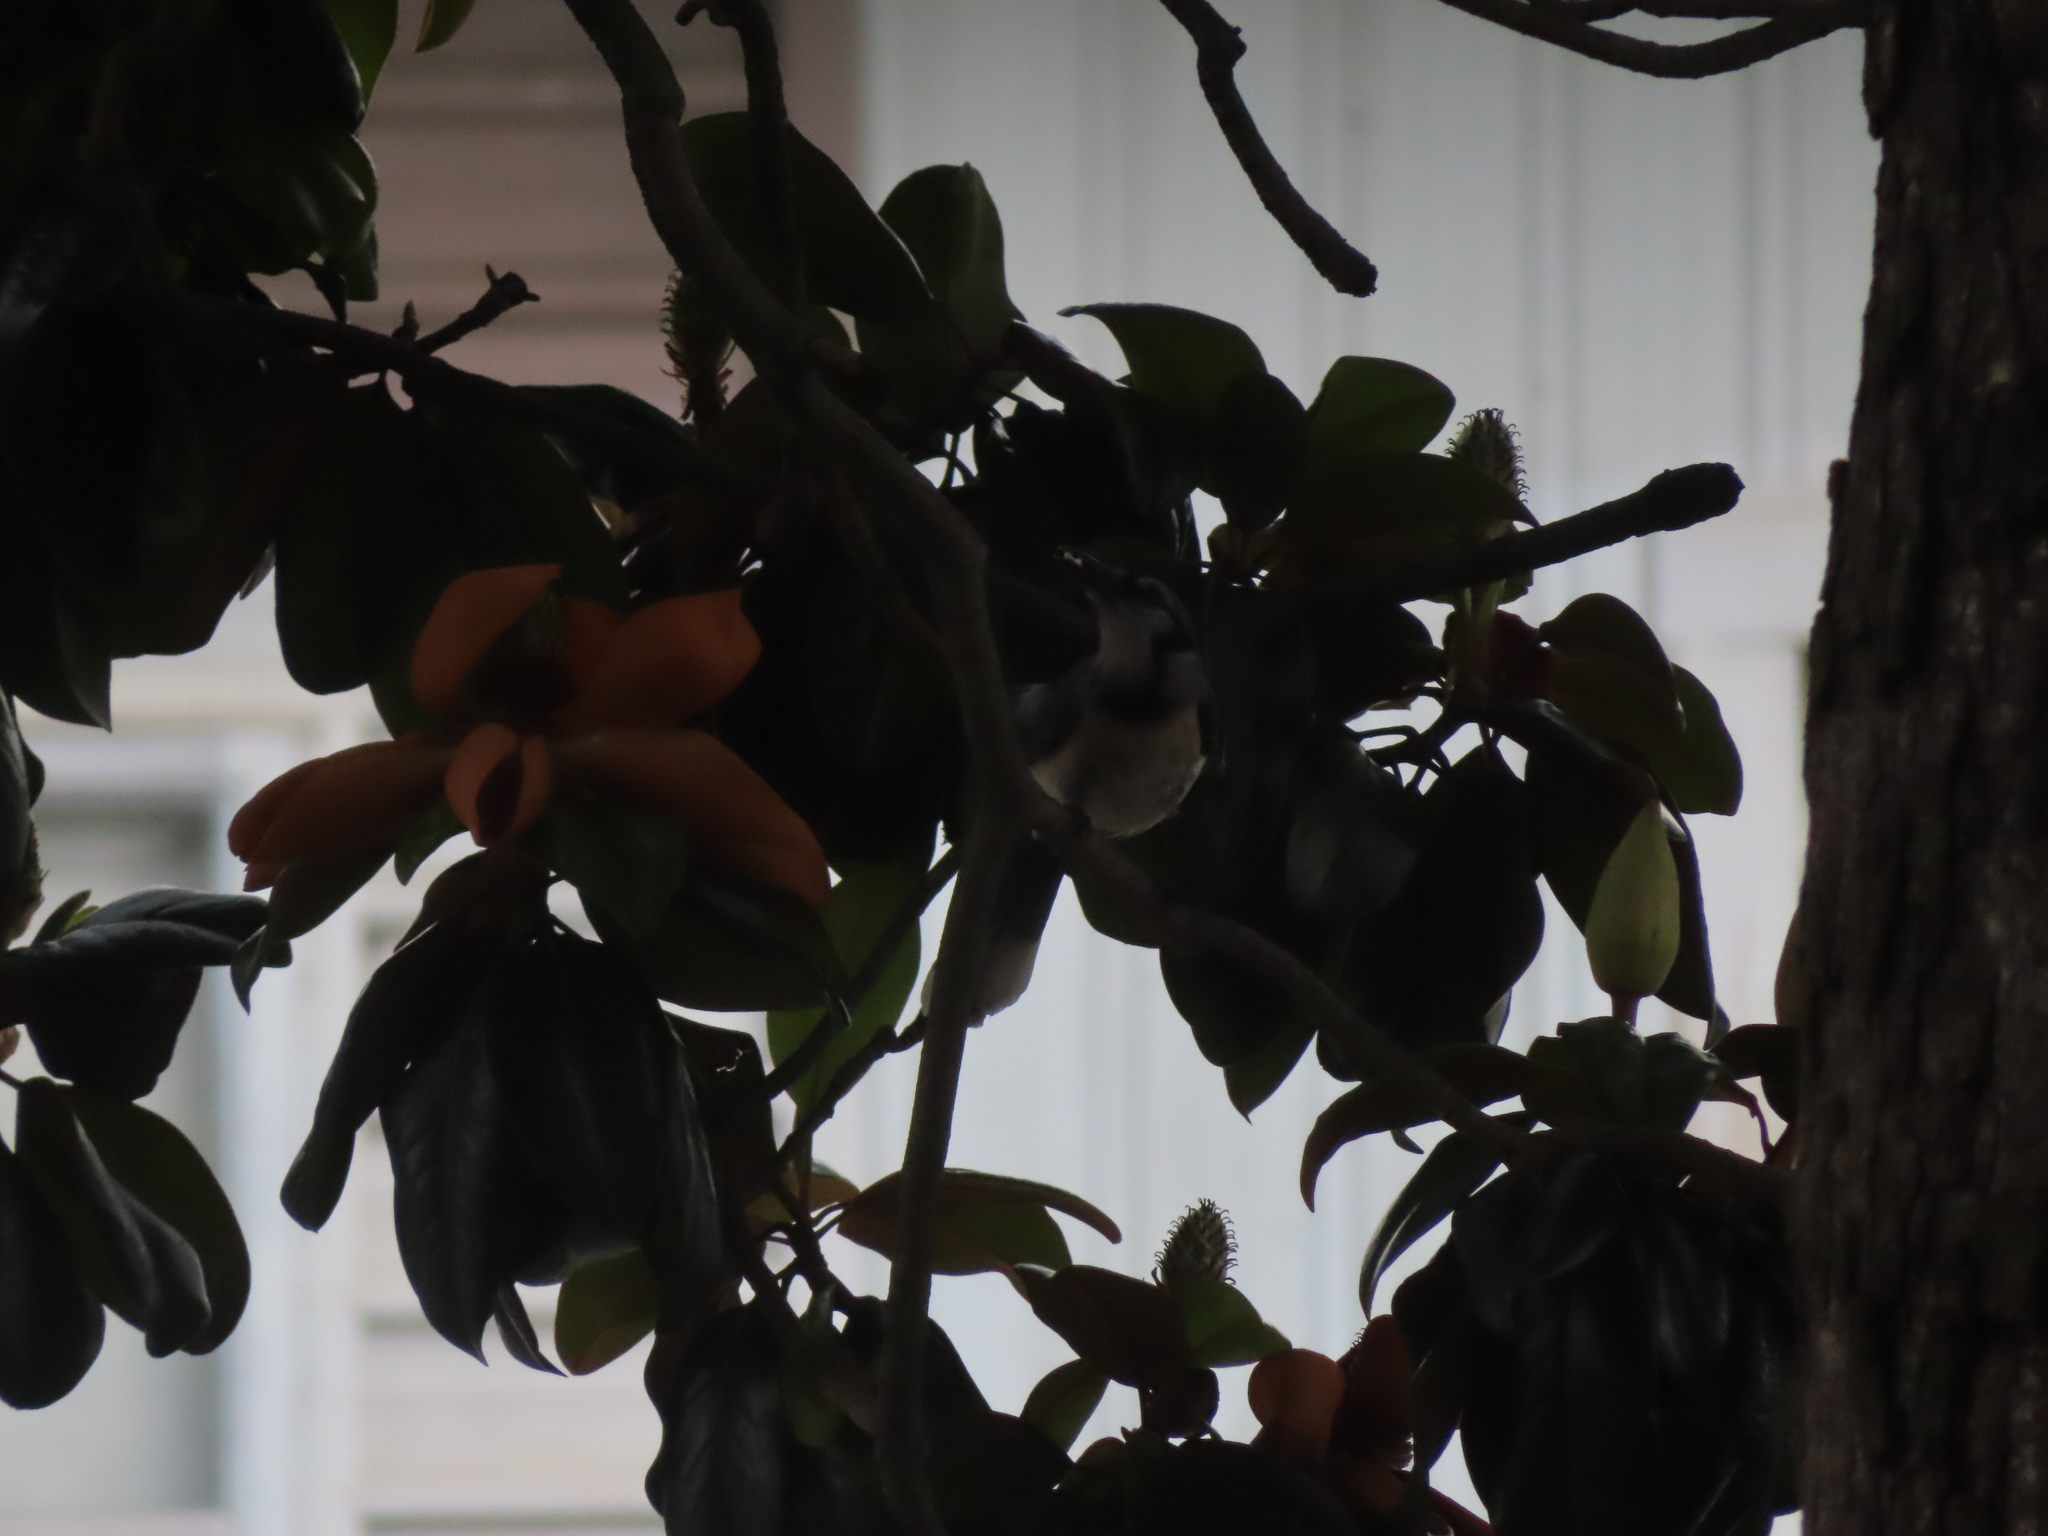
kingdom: Animalia
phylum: Chordata
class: Aves
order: Passeriformes
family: Corvidae
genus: Cyanocitta
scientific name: Cyanocitta cristata
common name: Blue jay
